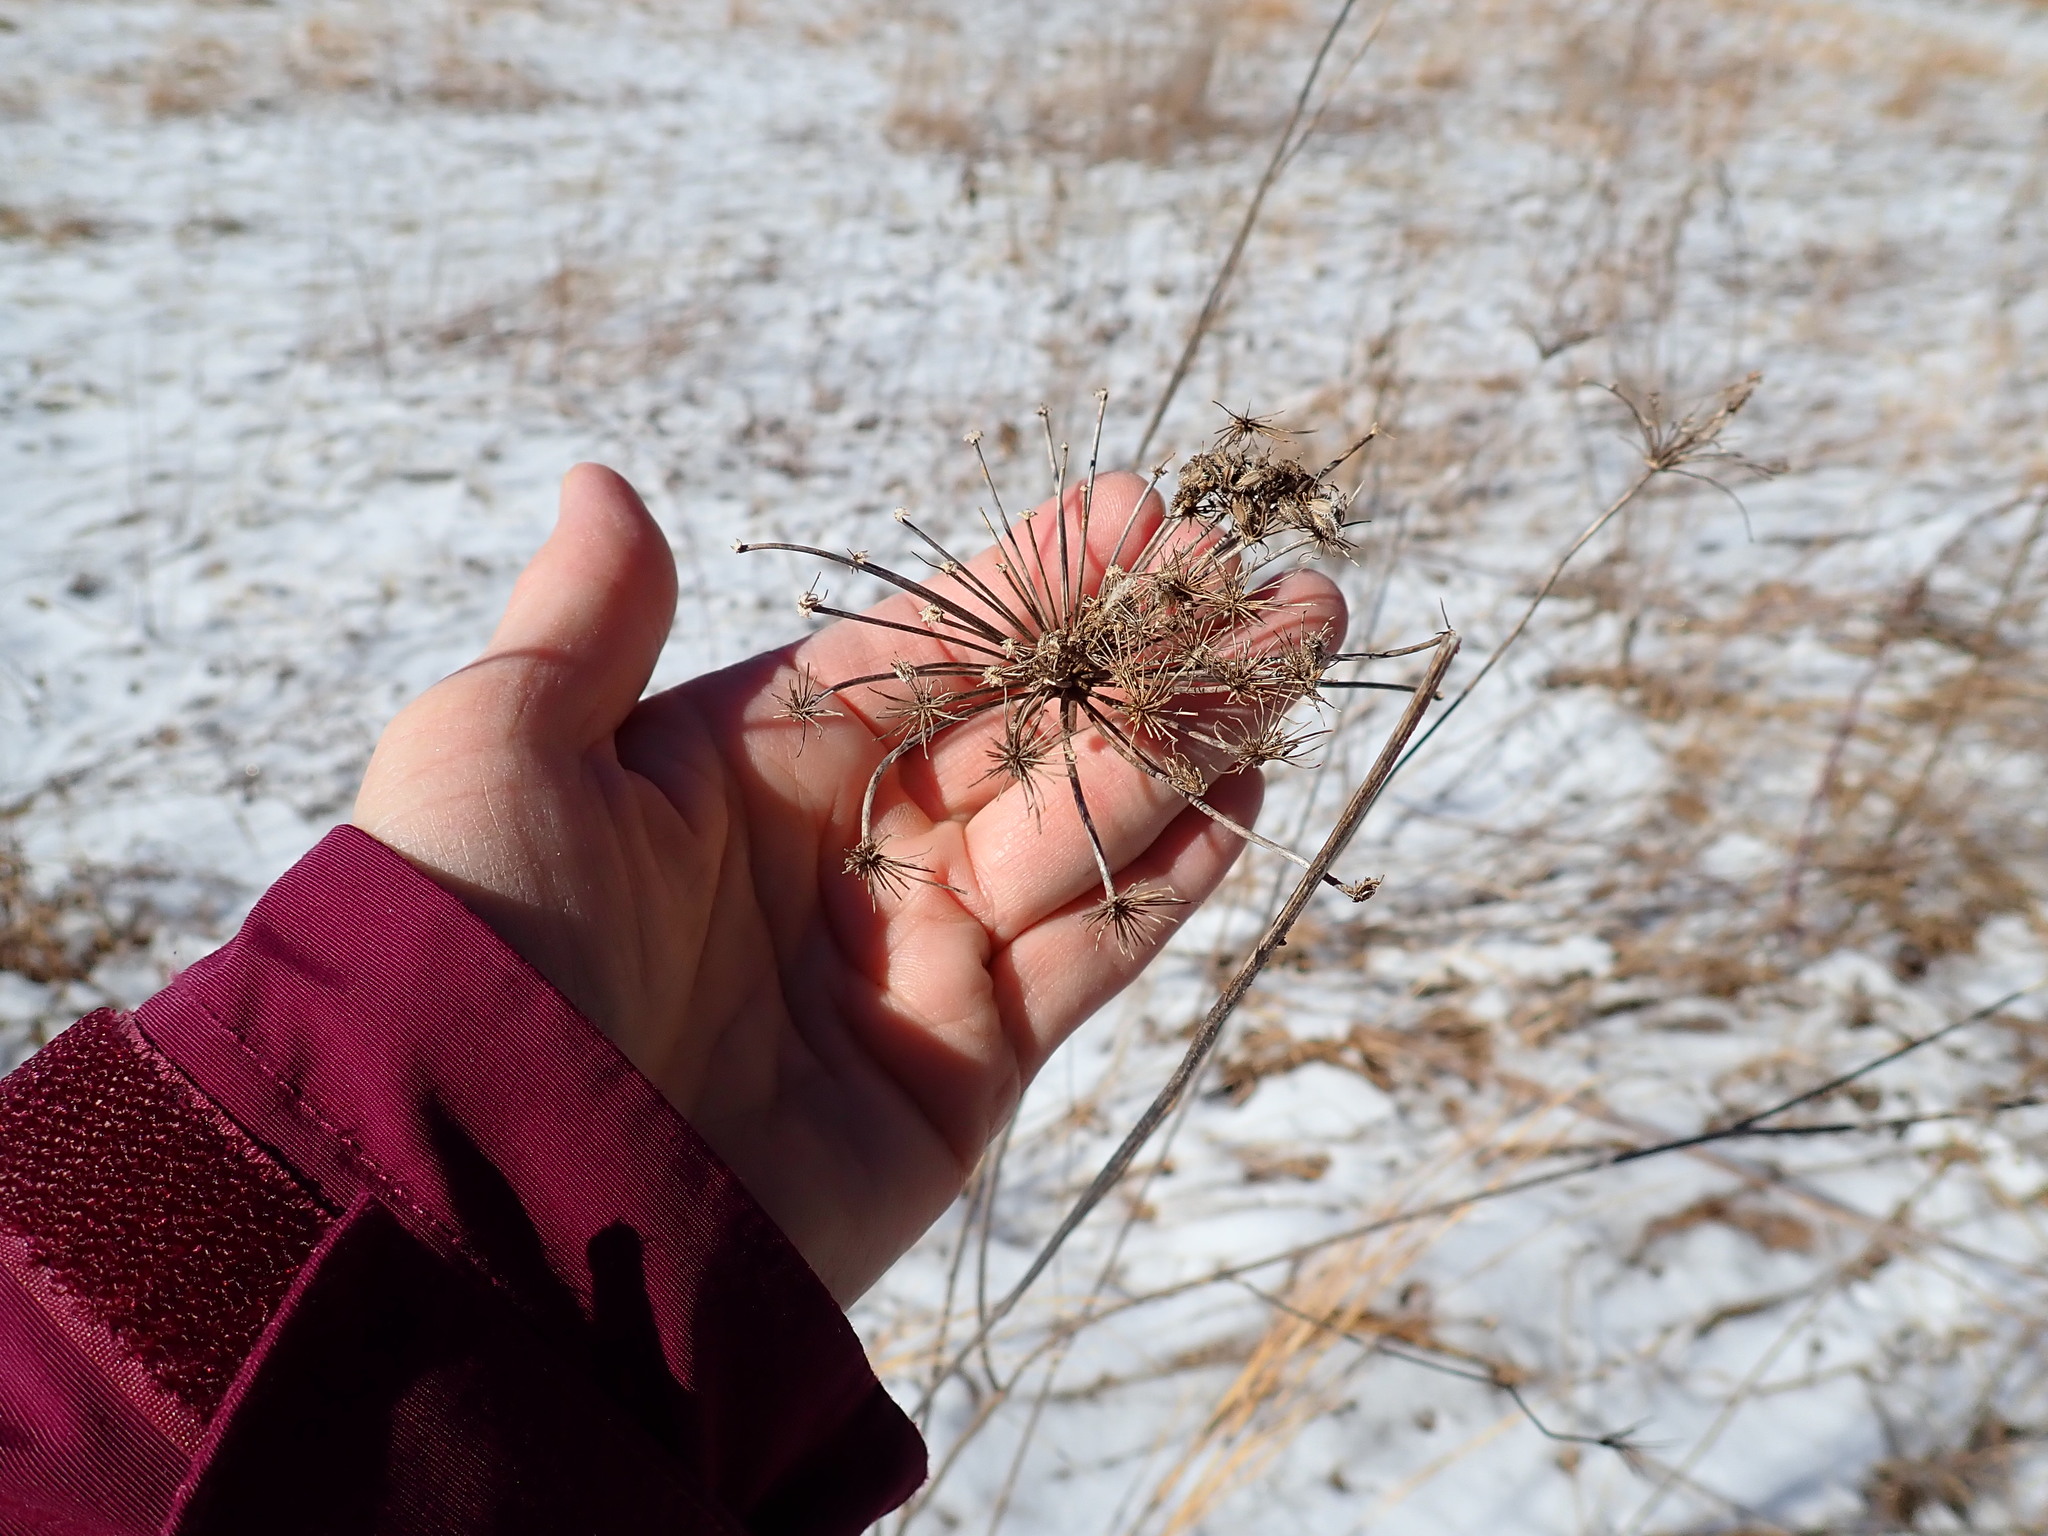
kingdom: Plantae
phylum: Tracheophyta
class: Magnoliopsida
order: Apiales
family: Apiaceae
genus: Daucus
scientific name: Daucus carota
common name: Wild carrot
